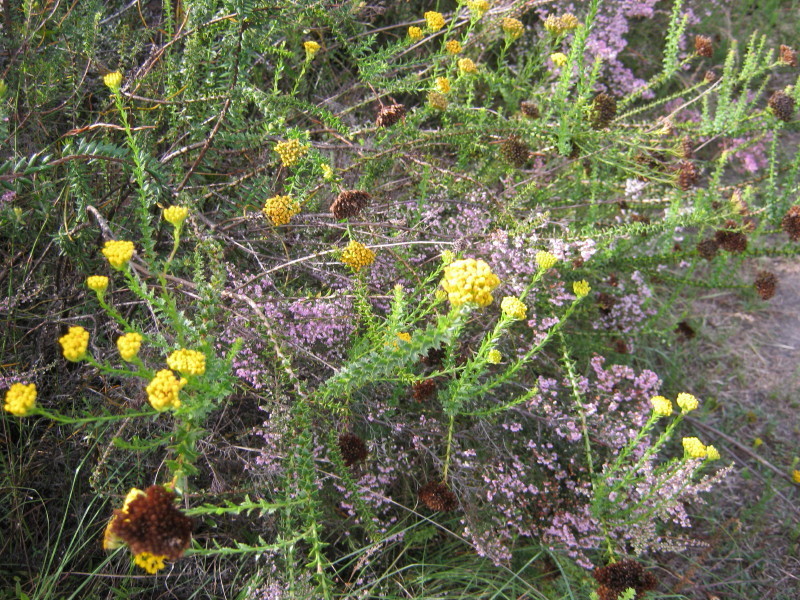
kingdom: Plantae
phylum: Tracheophyta
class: Magnoliopsida
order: Asterales
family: Asteraceae
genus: Athanasia
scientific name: Athanasia trifurcata
